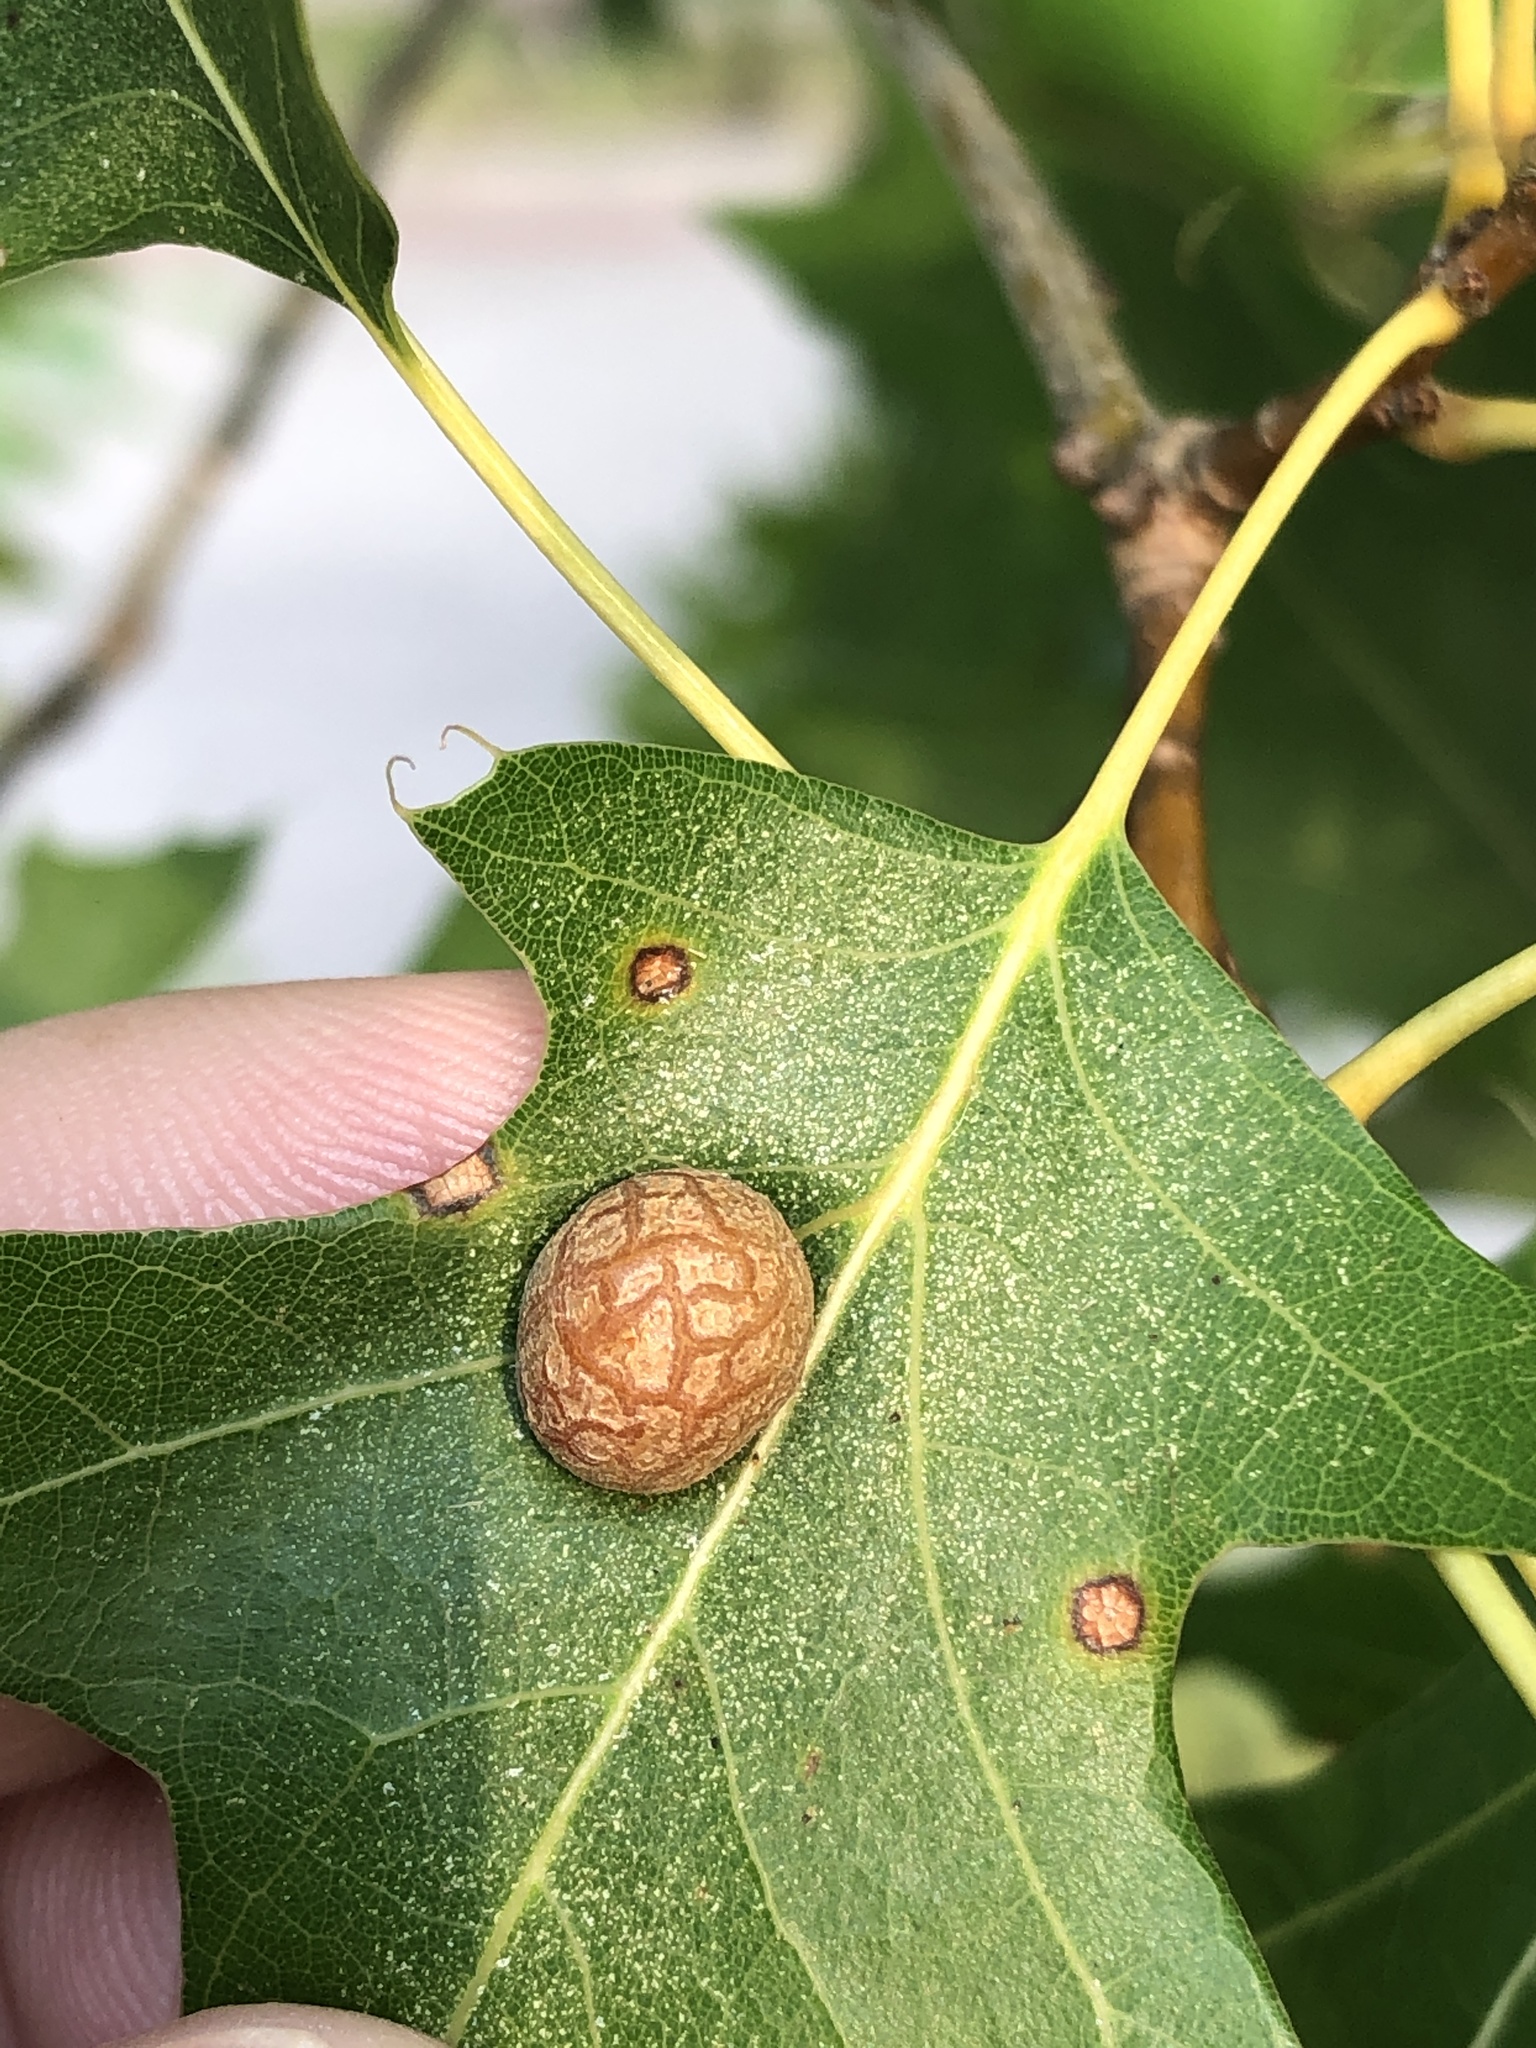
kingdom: Animalia
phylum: Arthropoda
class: Insecta
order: Diptera
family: Cecidomyiidae
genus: Polystepha
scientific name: Polystepha pilulae
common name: Oak leaf gall midge
